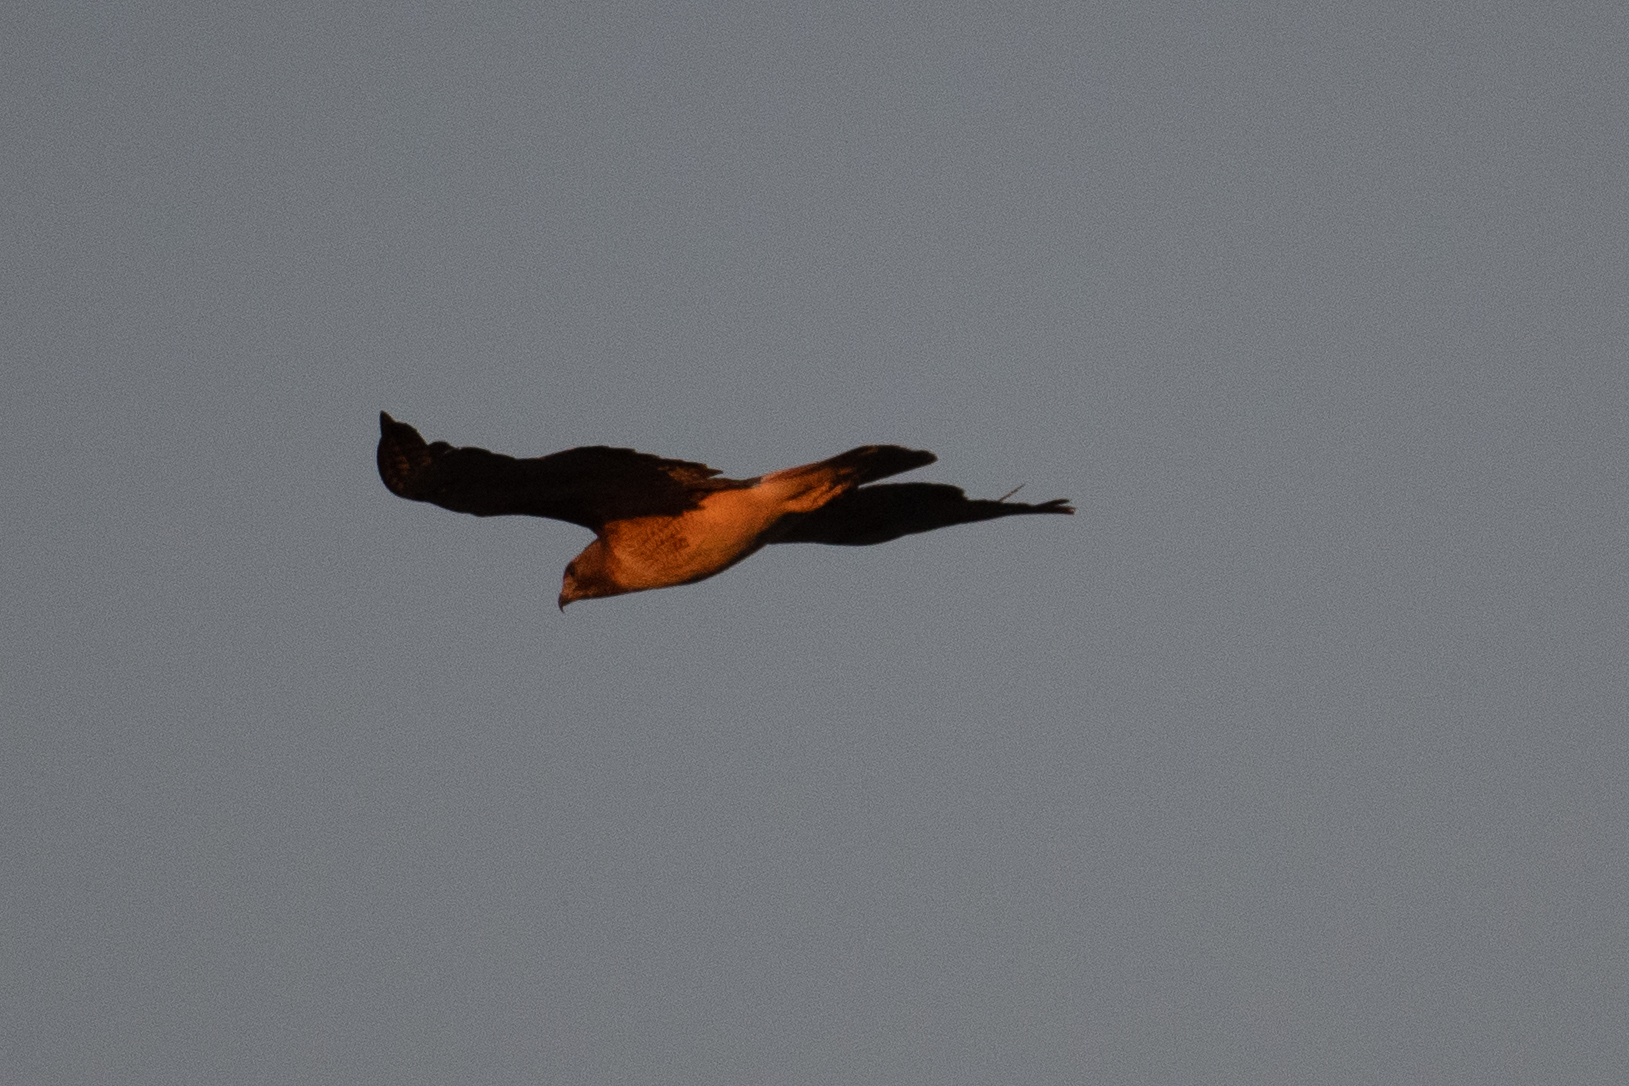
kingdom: Animalia
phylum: Chordata
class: Aves
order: Accipitriformes
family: Accipitridae
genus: Buteo
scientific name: Buteo jamaicensis
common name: Red-tailed hawk
